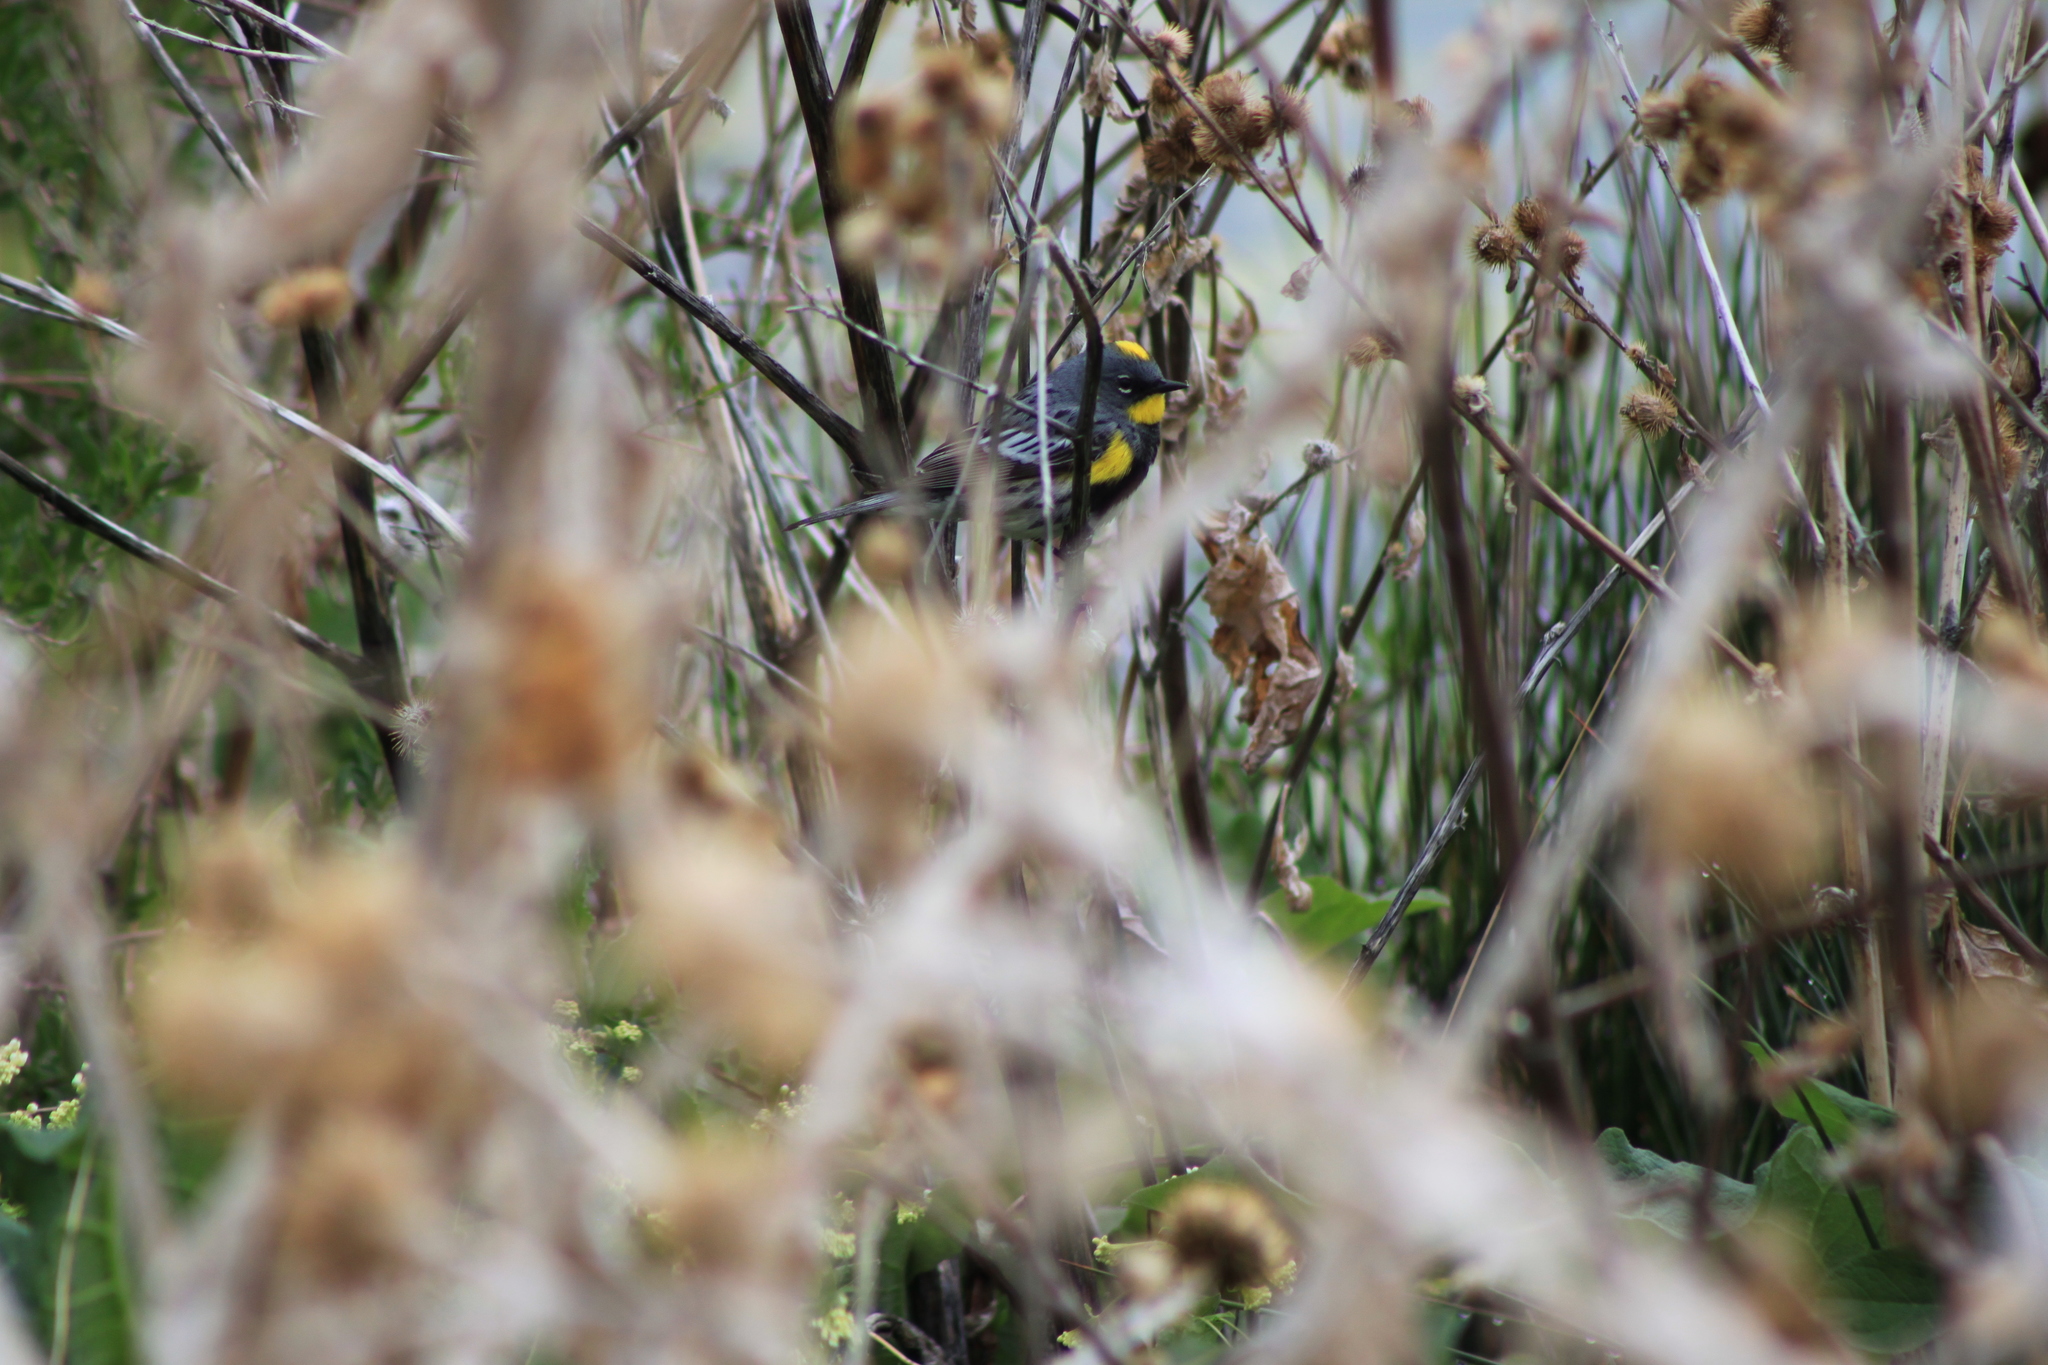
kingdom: Animalia
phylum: Chordata
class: Aves
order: Passeriformes
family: Parulidae
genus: Setophaga
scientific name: Setophaga coronata
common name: Myrtle warbler
